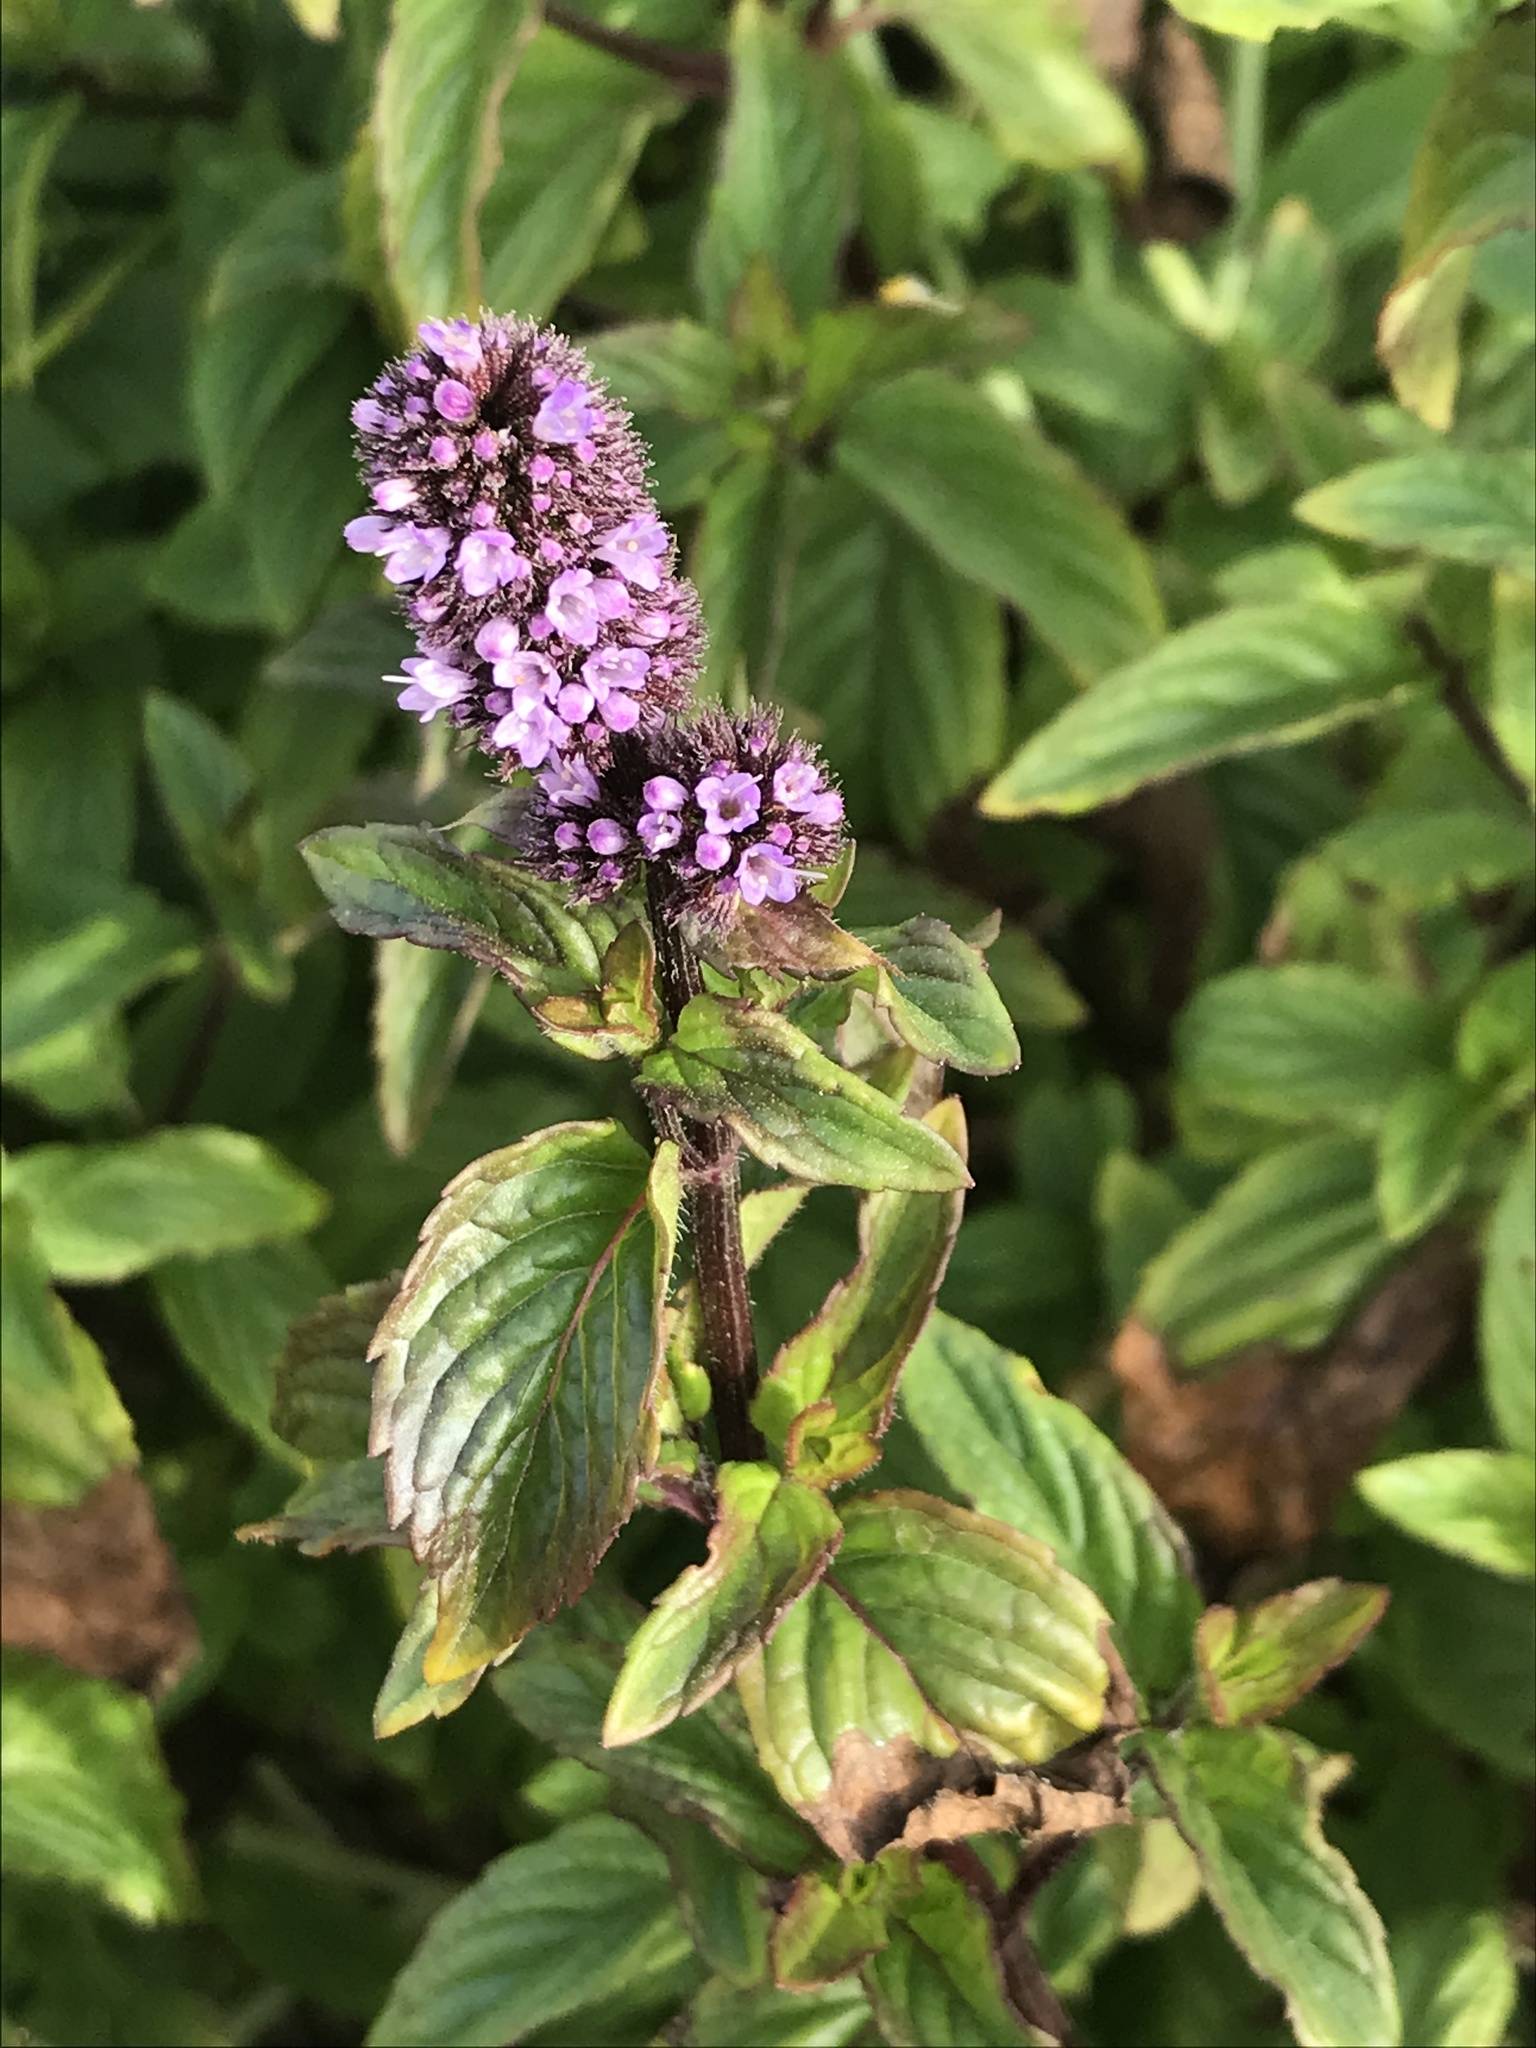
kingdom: Plantae
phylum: Tracheophyta
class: Magnoliopsida
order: Lamiales
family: Lamiaceae
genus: Mentha
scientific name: Mentha piperita
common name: Peppermint
